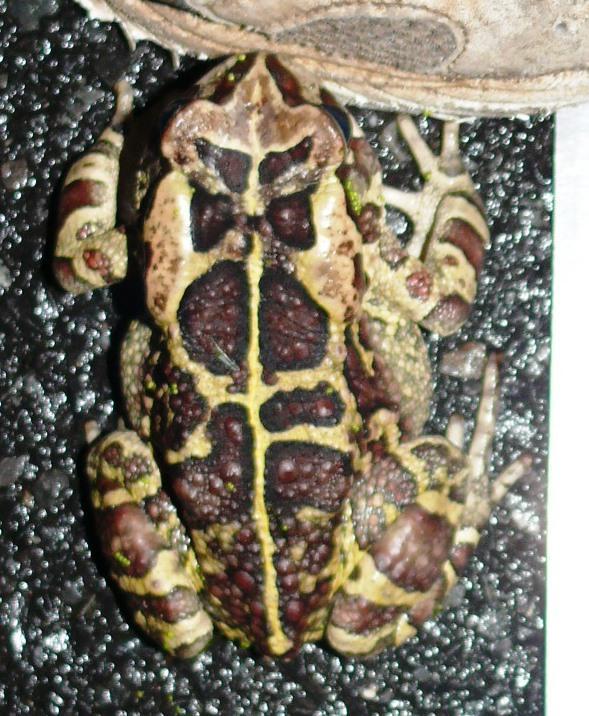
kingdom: Animalia
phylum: Chordata
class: Amphibia
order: Anura
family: Bufonidae
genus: Sclerophrys
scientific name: Sclerophrys pantherina
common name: Panther toad
